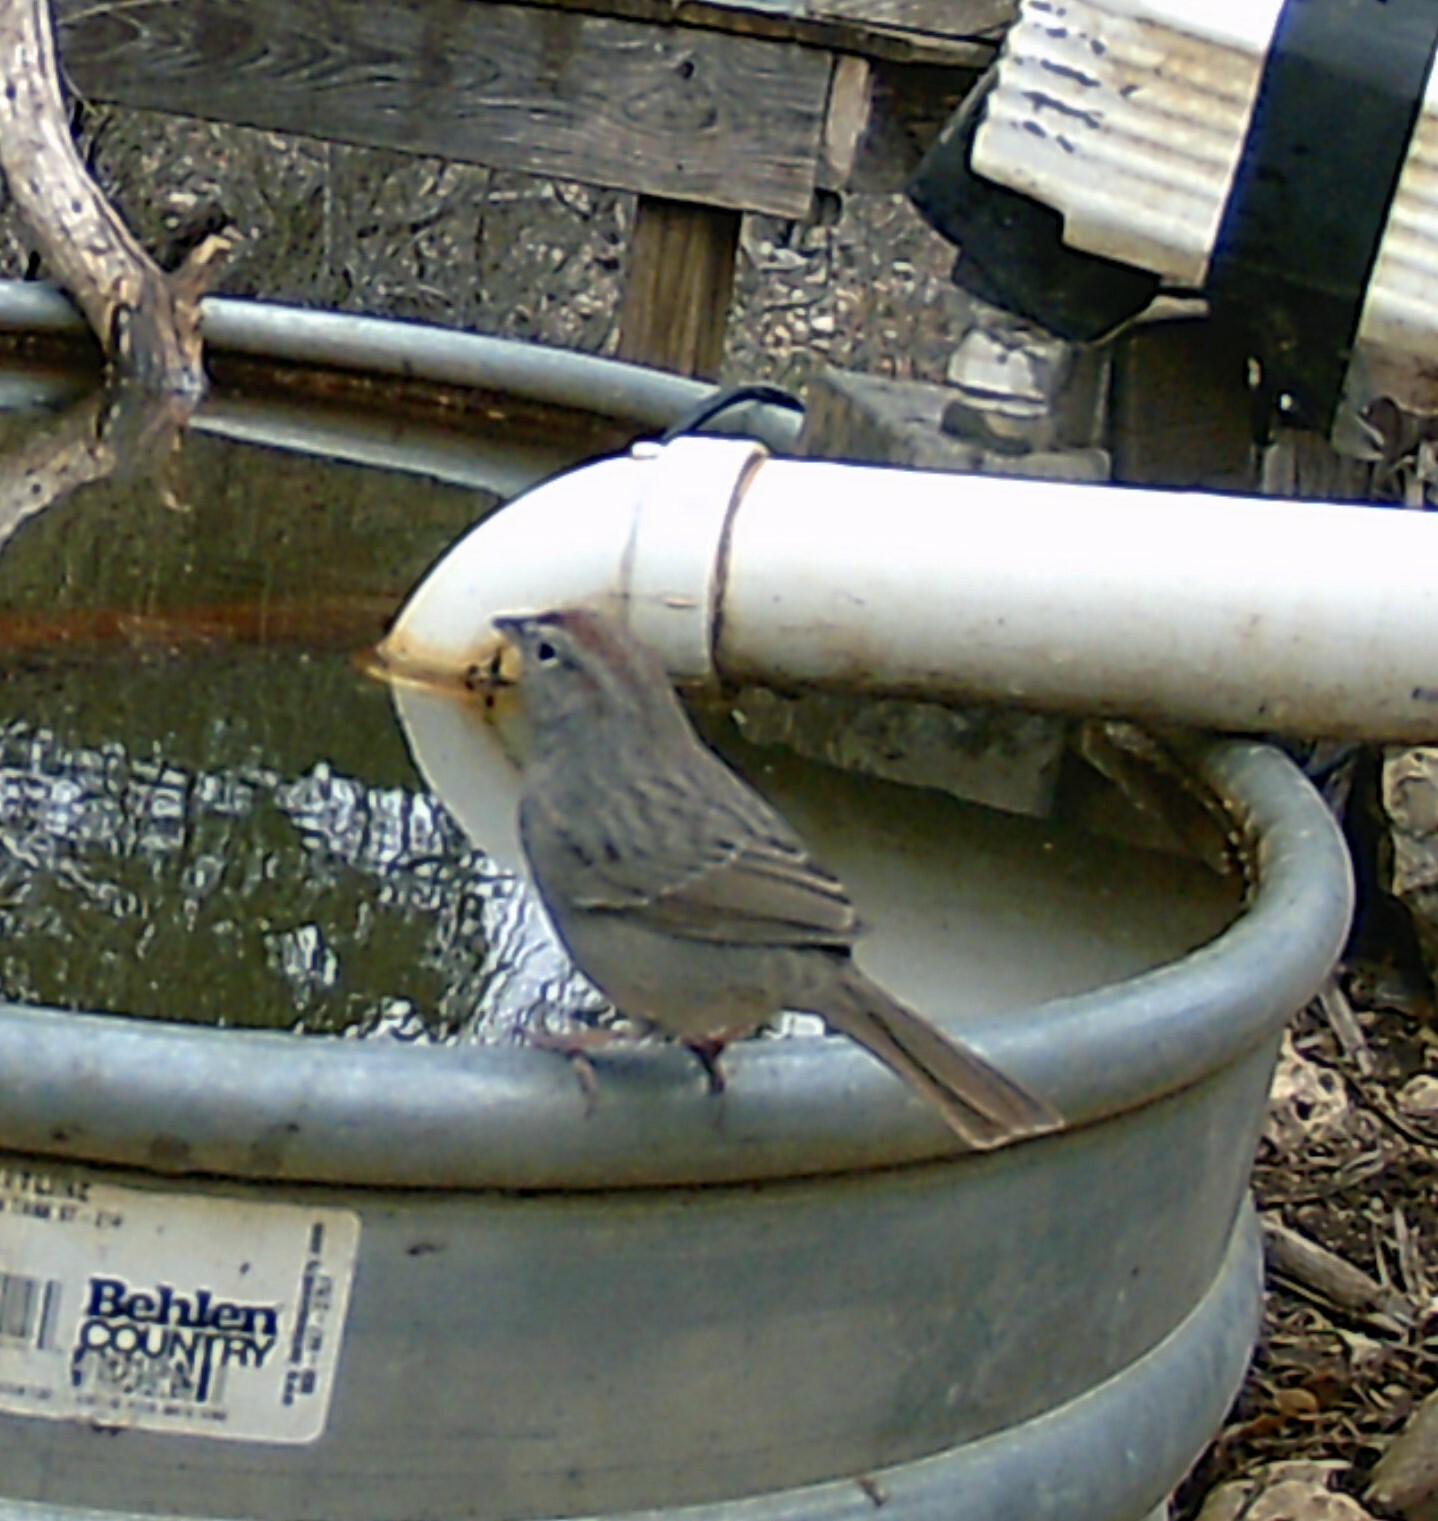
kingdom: Animalia
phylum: Chordata
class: Aves
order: Passeriformes
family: Passerellidae
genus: Aimophila
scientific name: Aimophila ruficeps
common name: Rufous-crowned sparrow
